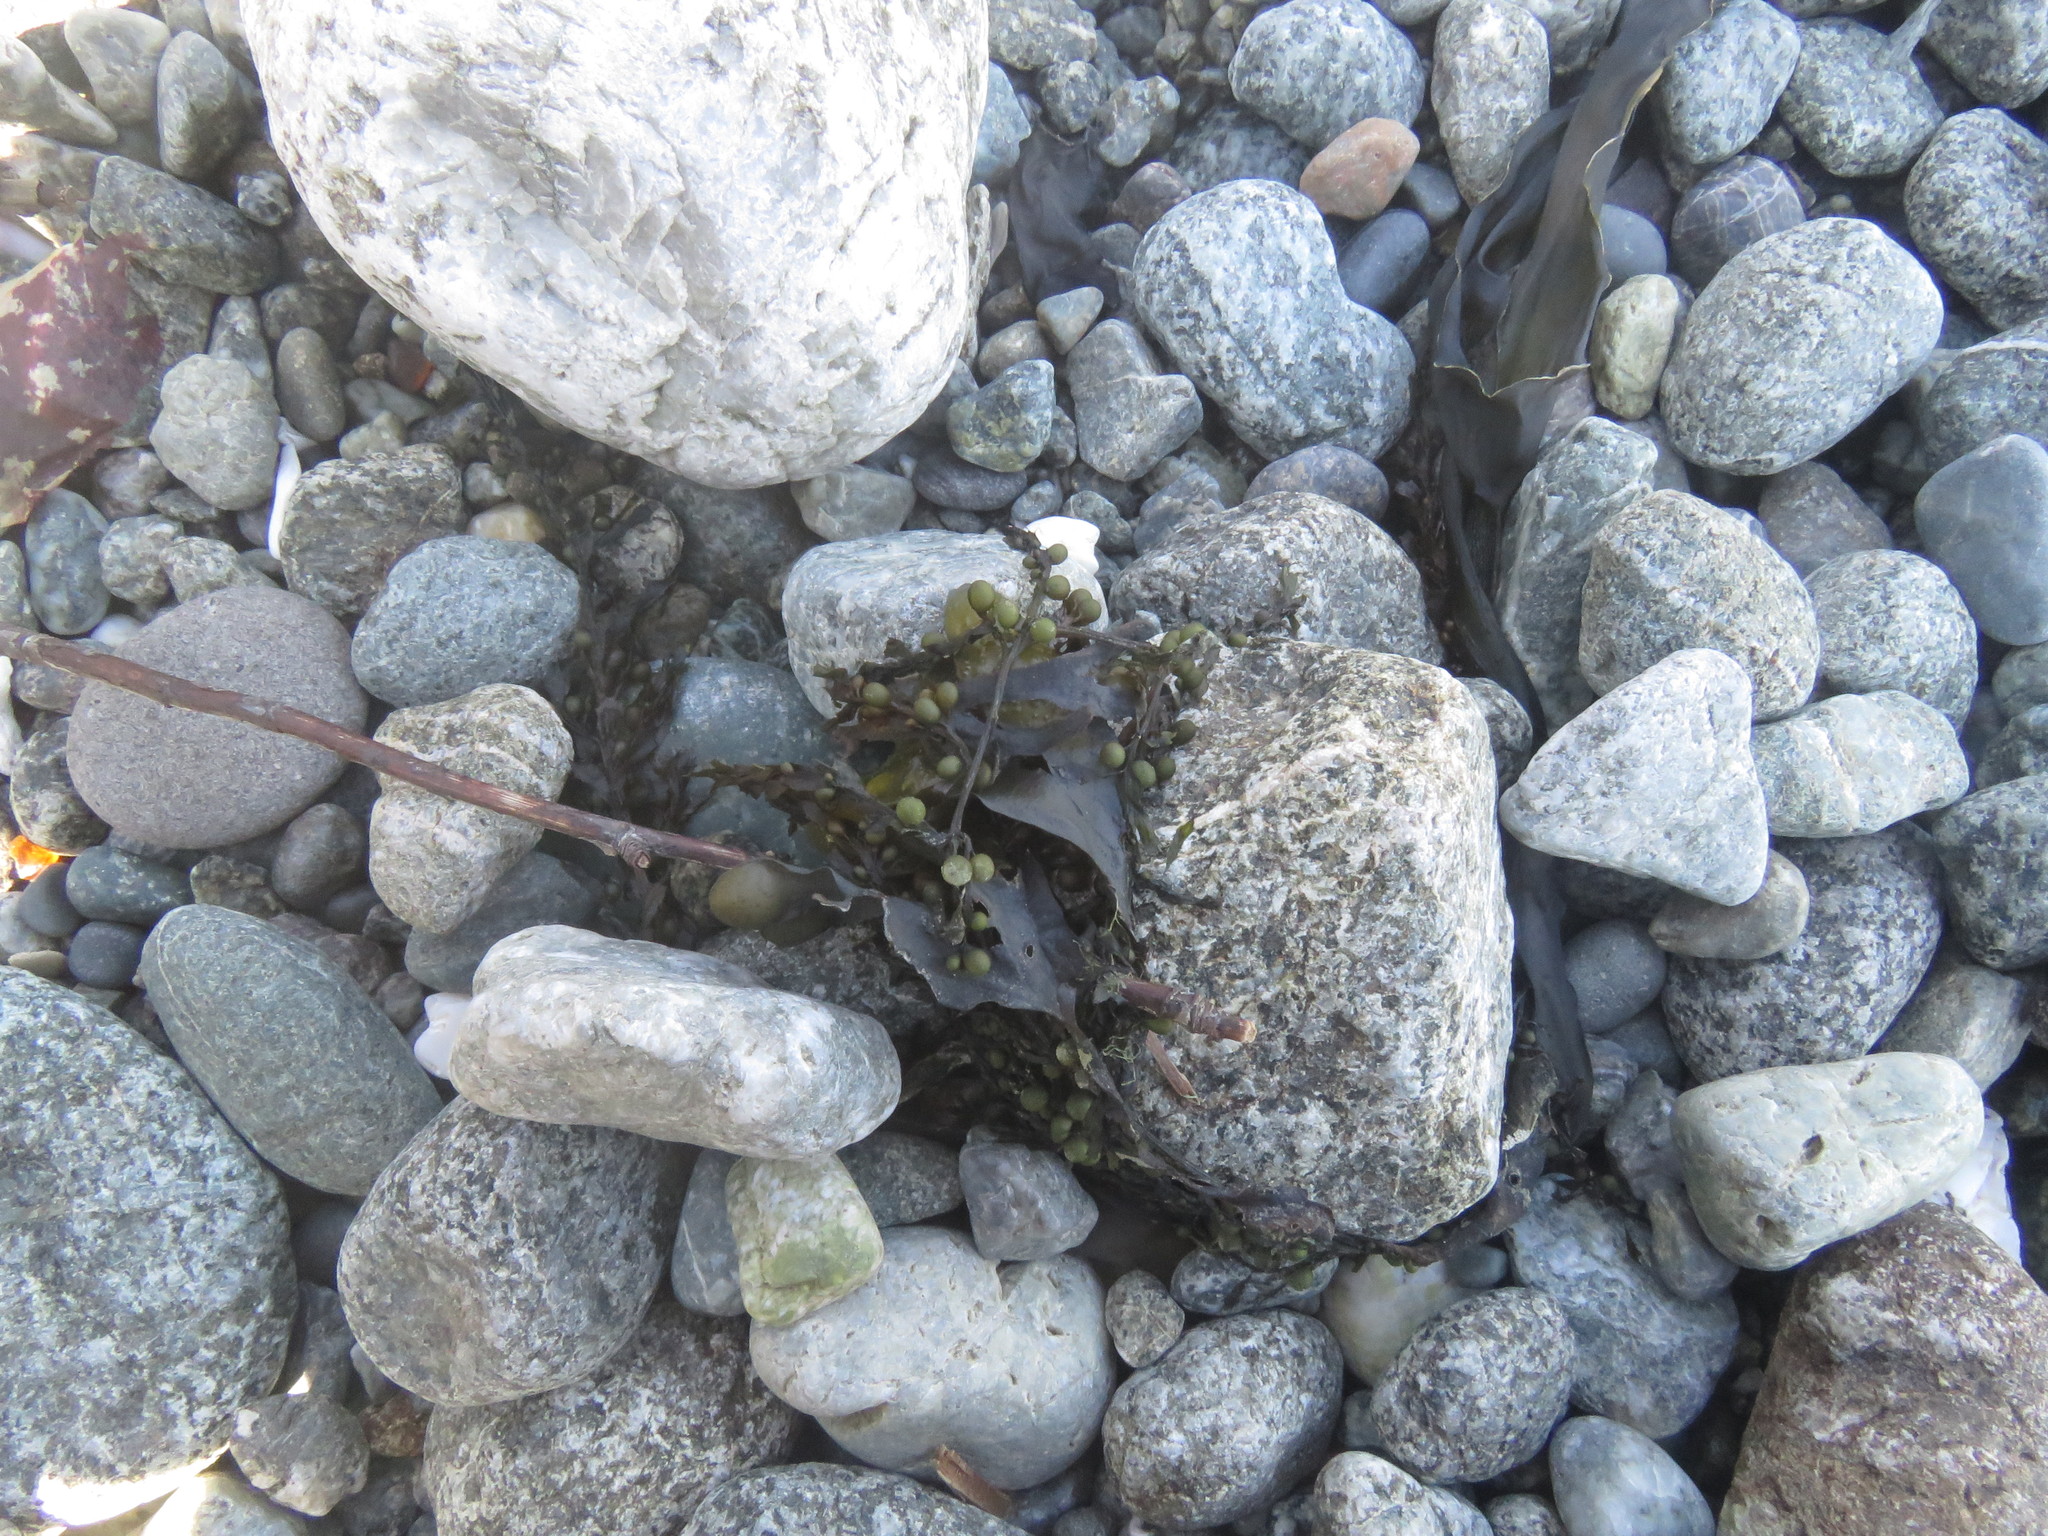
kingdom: Chromista
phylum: Ochrophyta
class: Phaeophyceae
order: Fucales
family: Sargassaceae
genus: Sargassum
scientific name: Sargassum muticum
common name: Japweed
